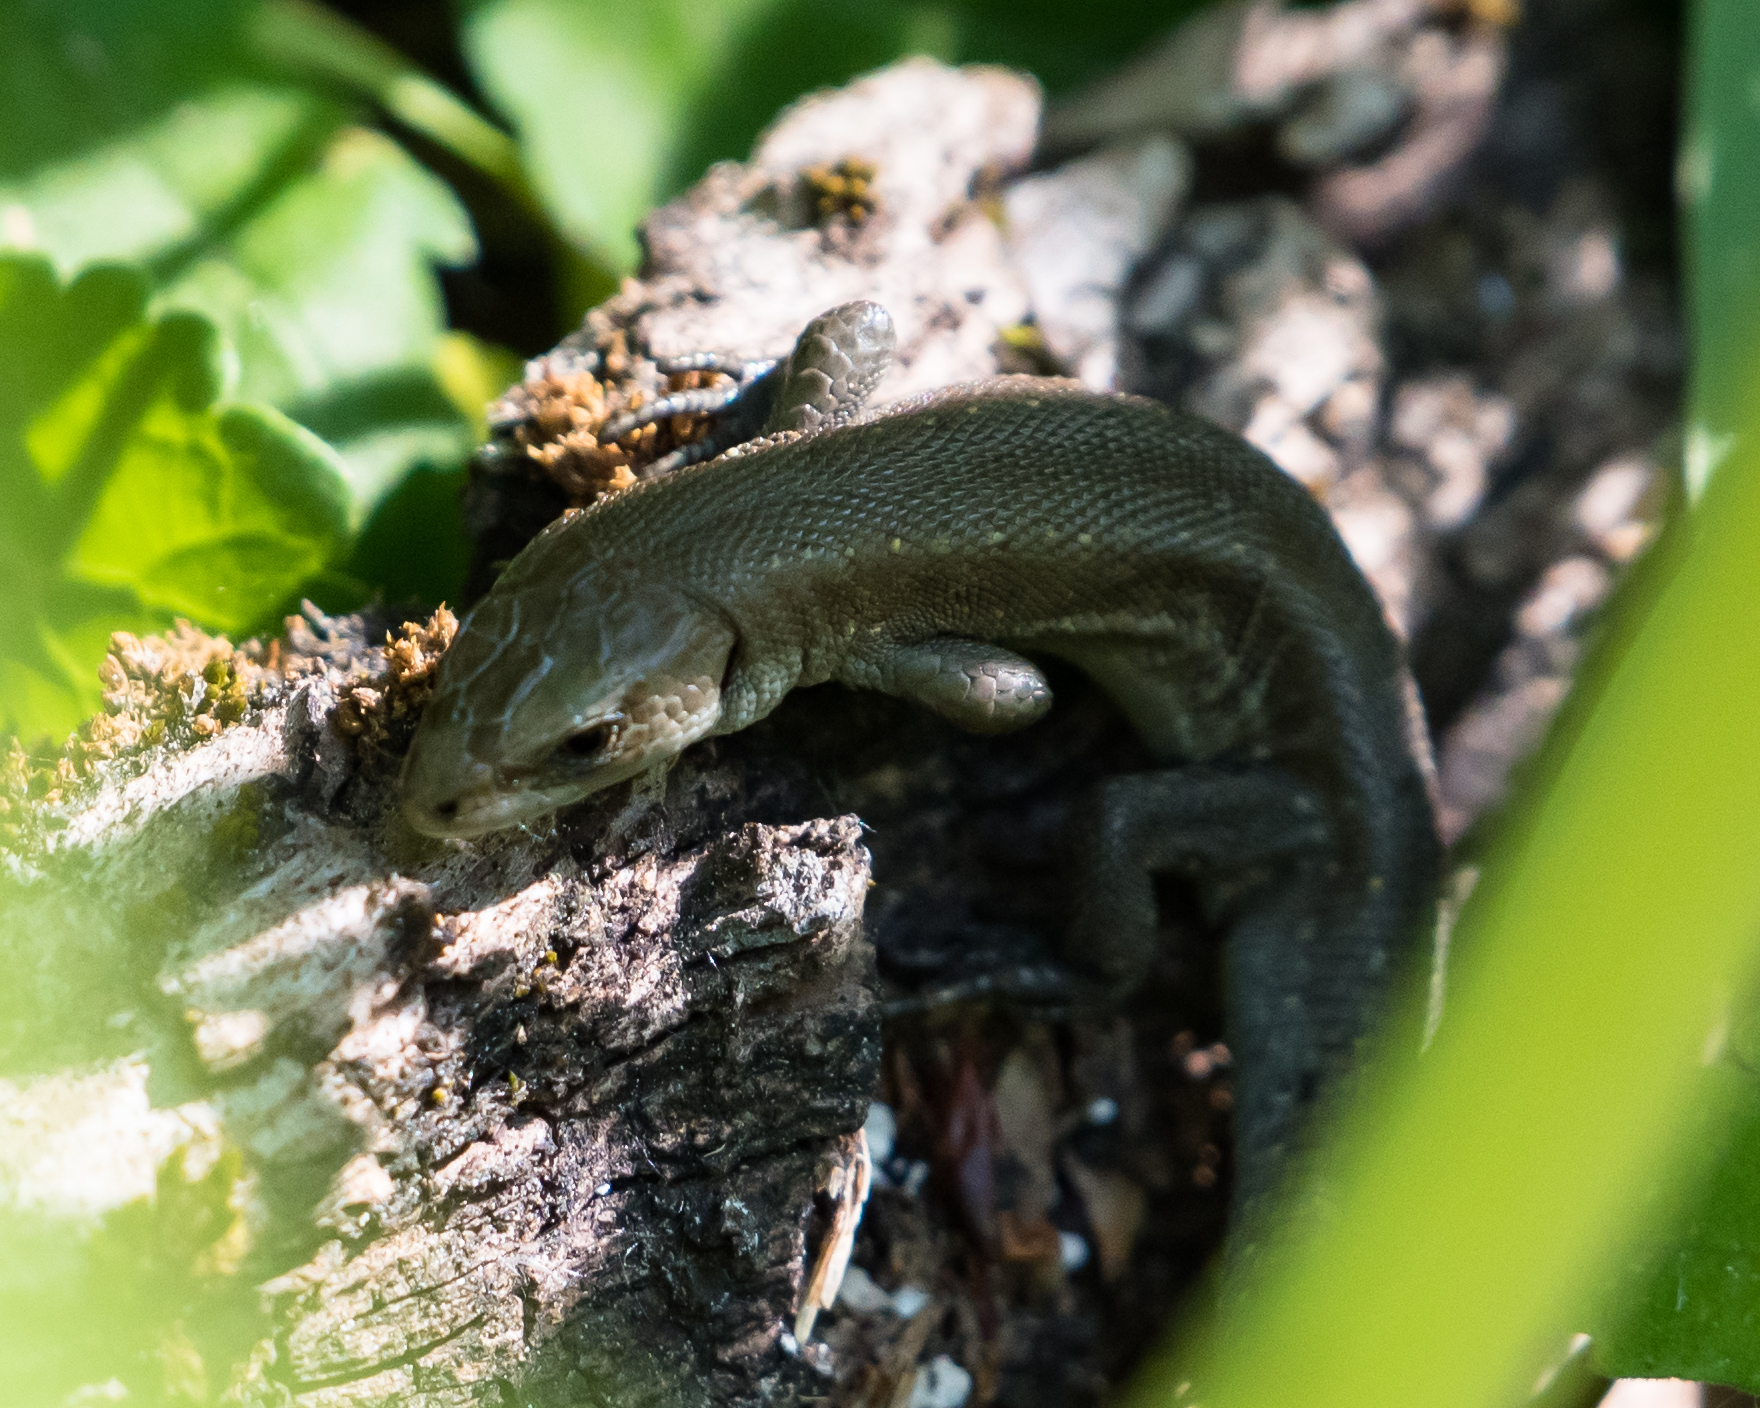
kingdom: Animalia
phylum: Chordata
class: Squamata
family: Lacertidae
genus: Zootoca
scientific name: Zootoca vivipara
